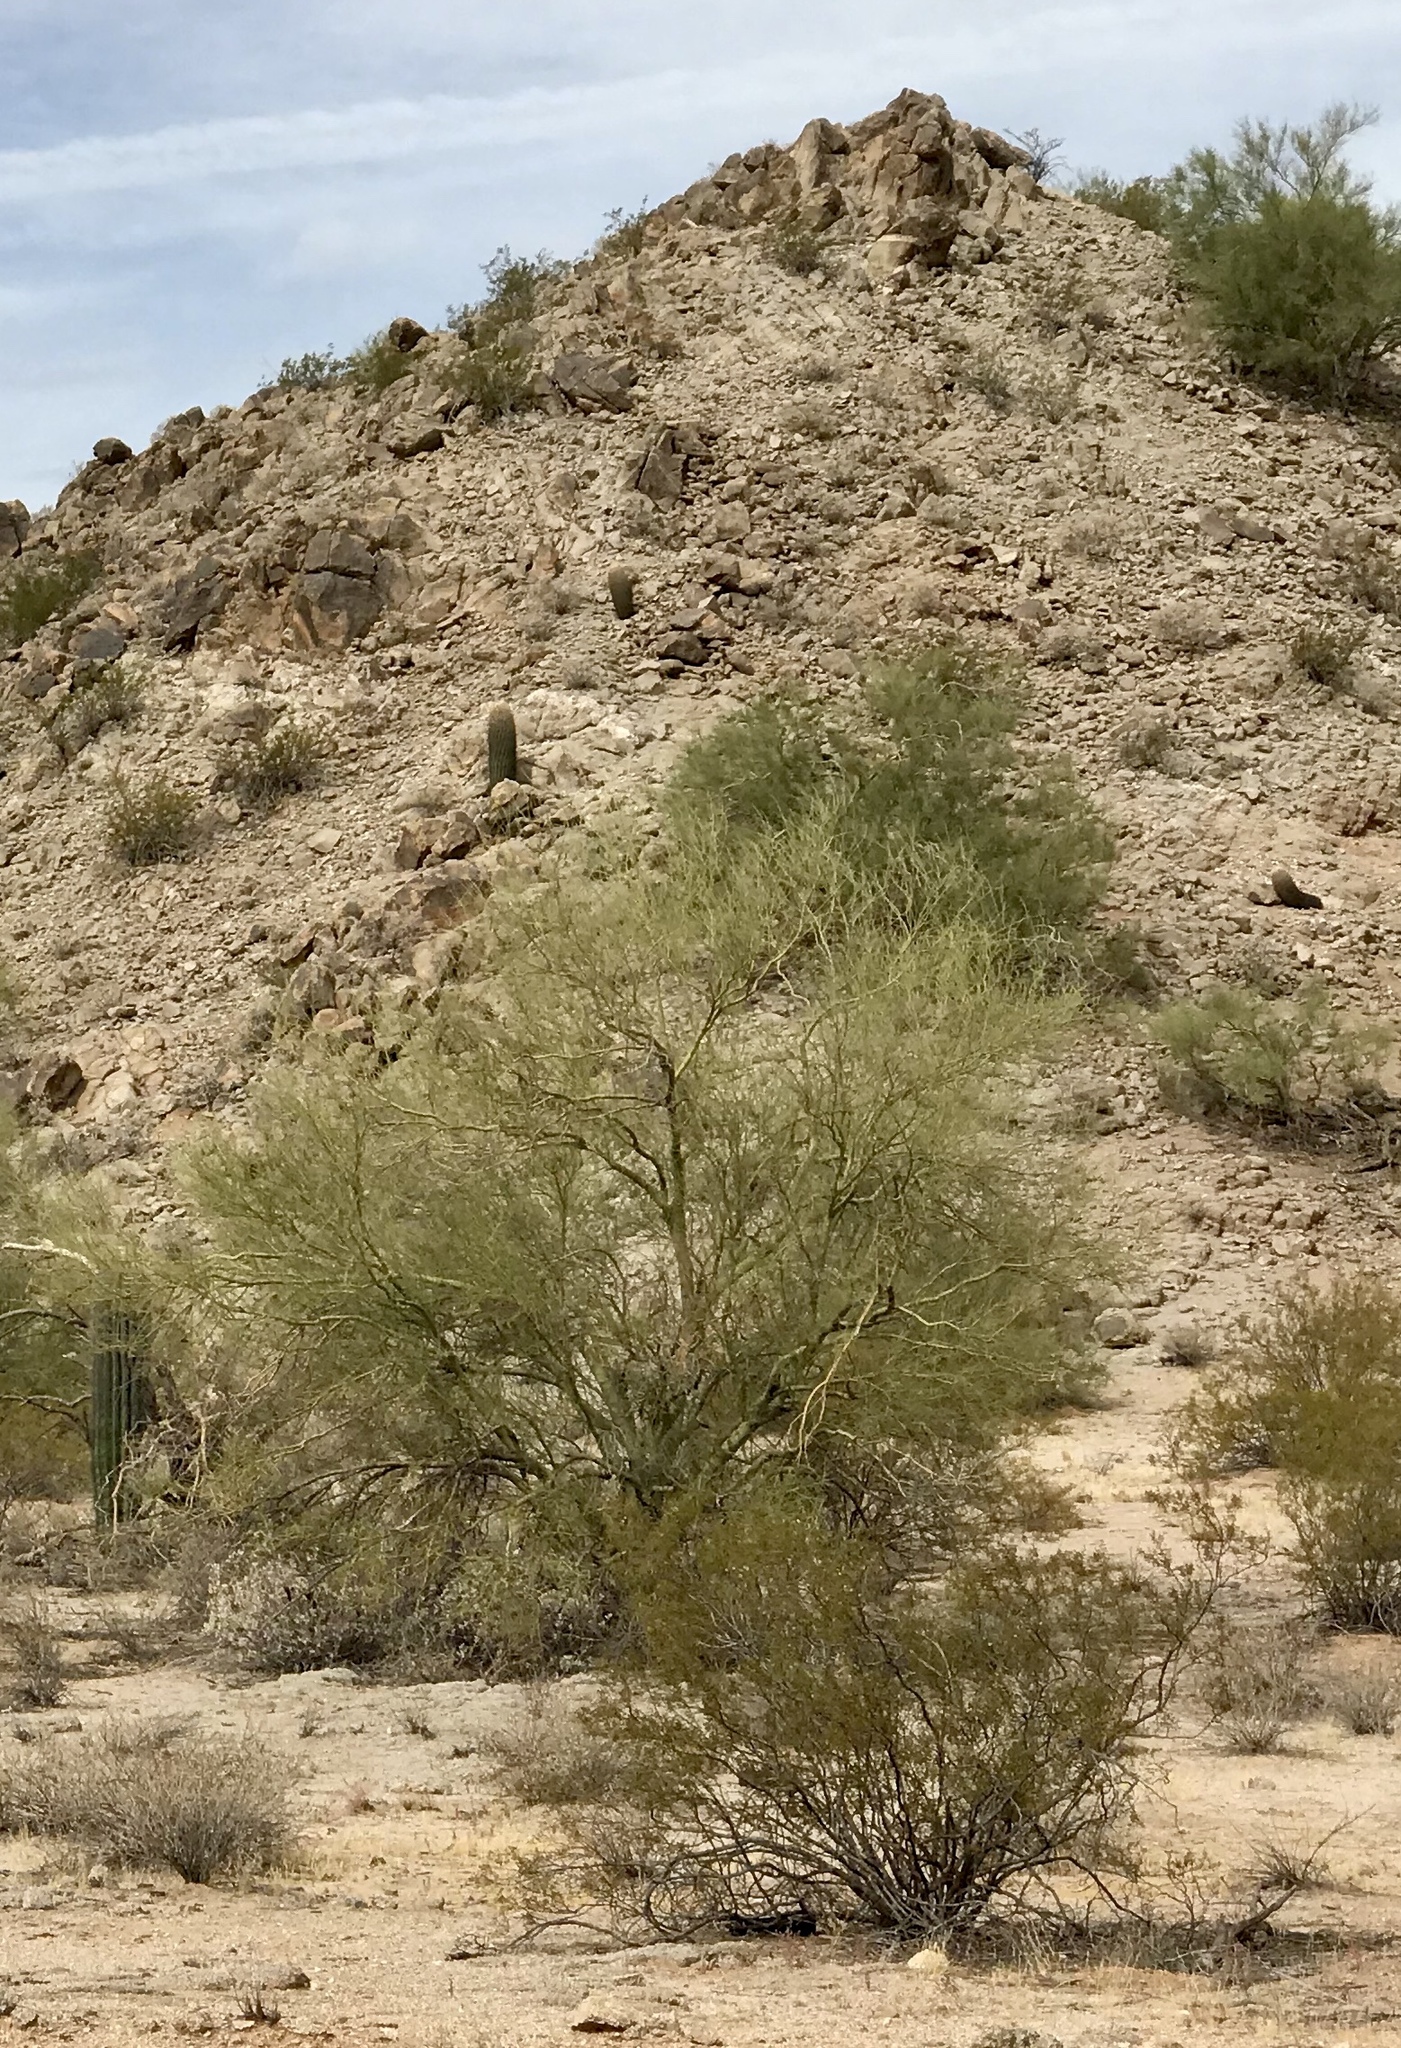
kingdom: Plantae
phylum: Tracheophyta
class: Magnoliopsida
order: Fabales
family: Fabaceae
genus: Parkinsonia
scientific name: Parkinsonia microphylla
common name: Yellow paloverde
